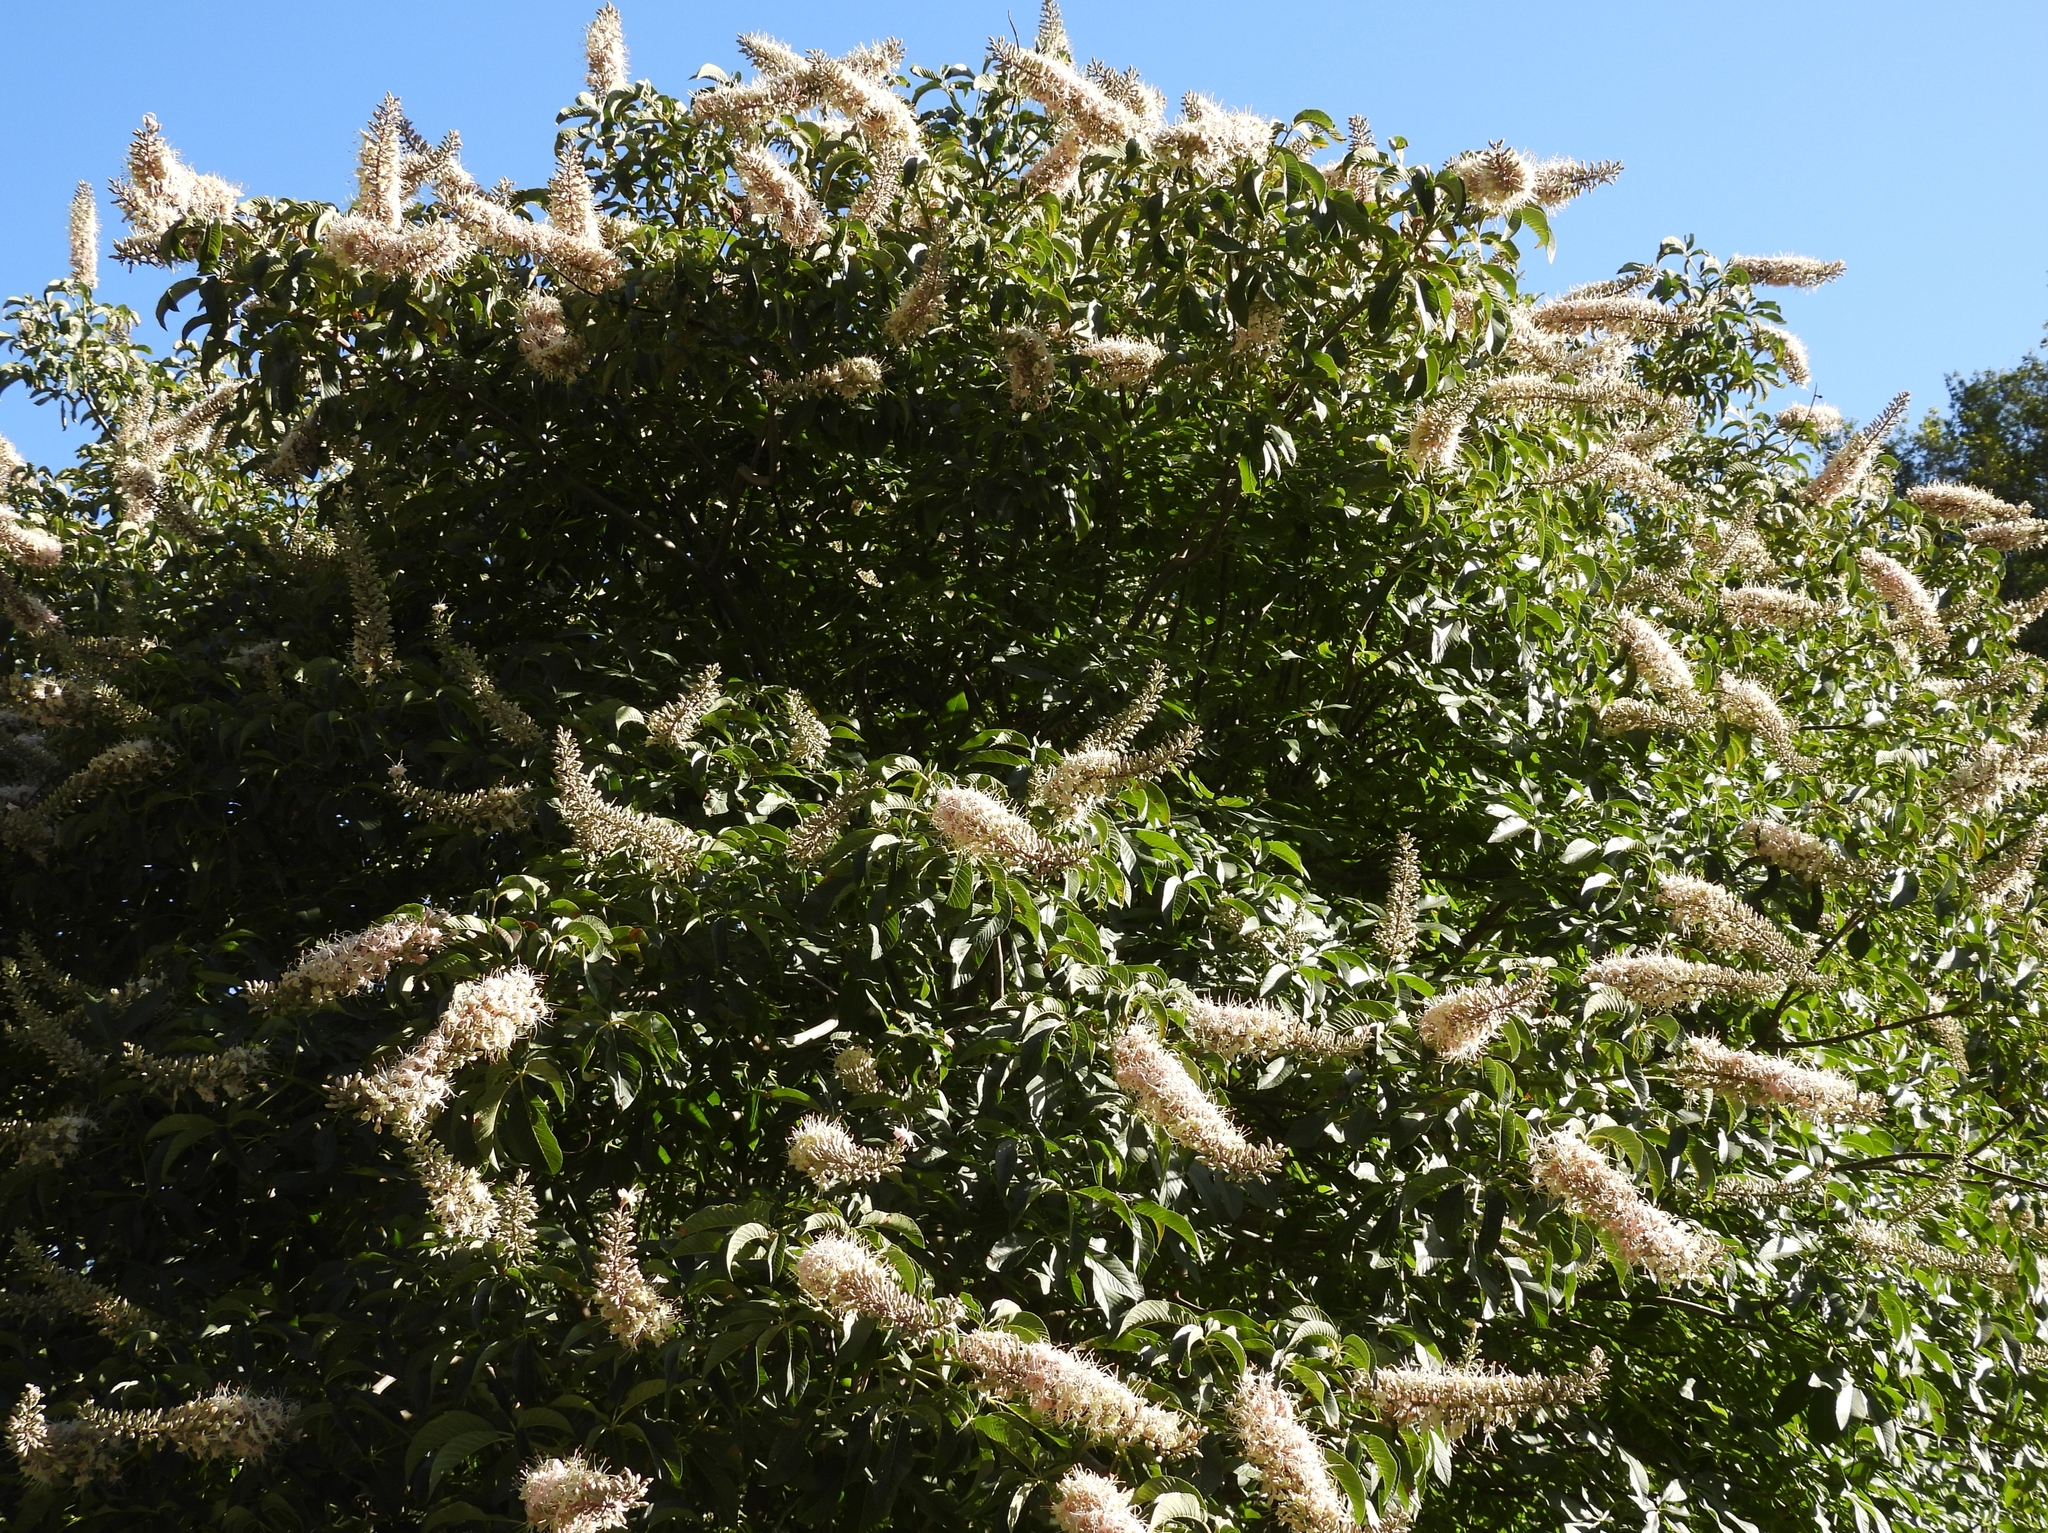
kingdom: Plantae
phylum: Tracheophyta
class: Magnoliopsida
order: Sapindales
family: Sapindaceae
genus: Aesculus
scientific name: Aesculus californica
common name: California buckeye
